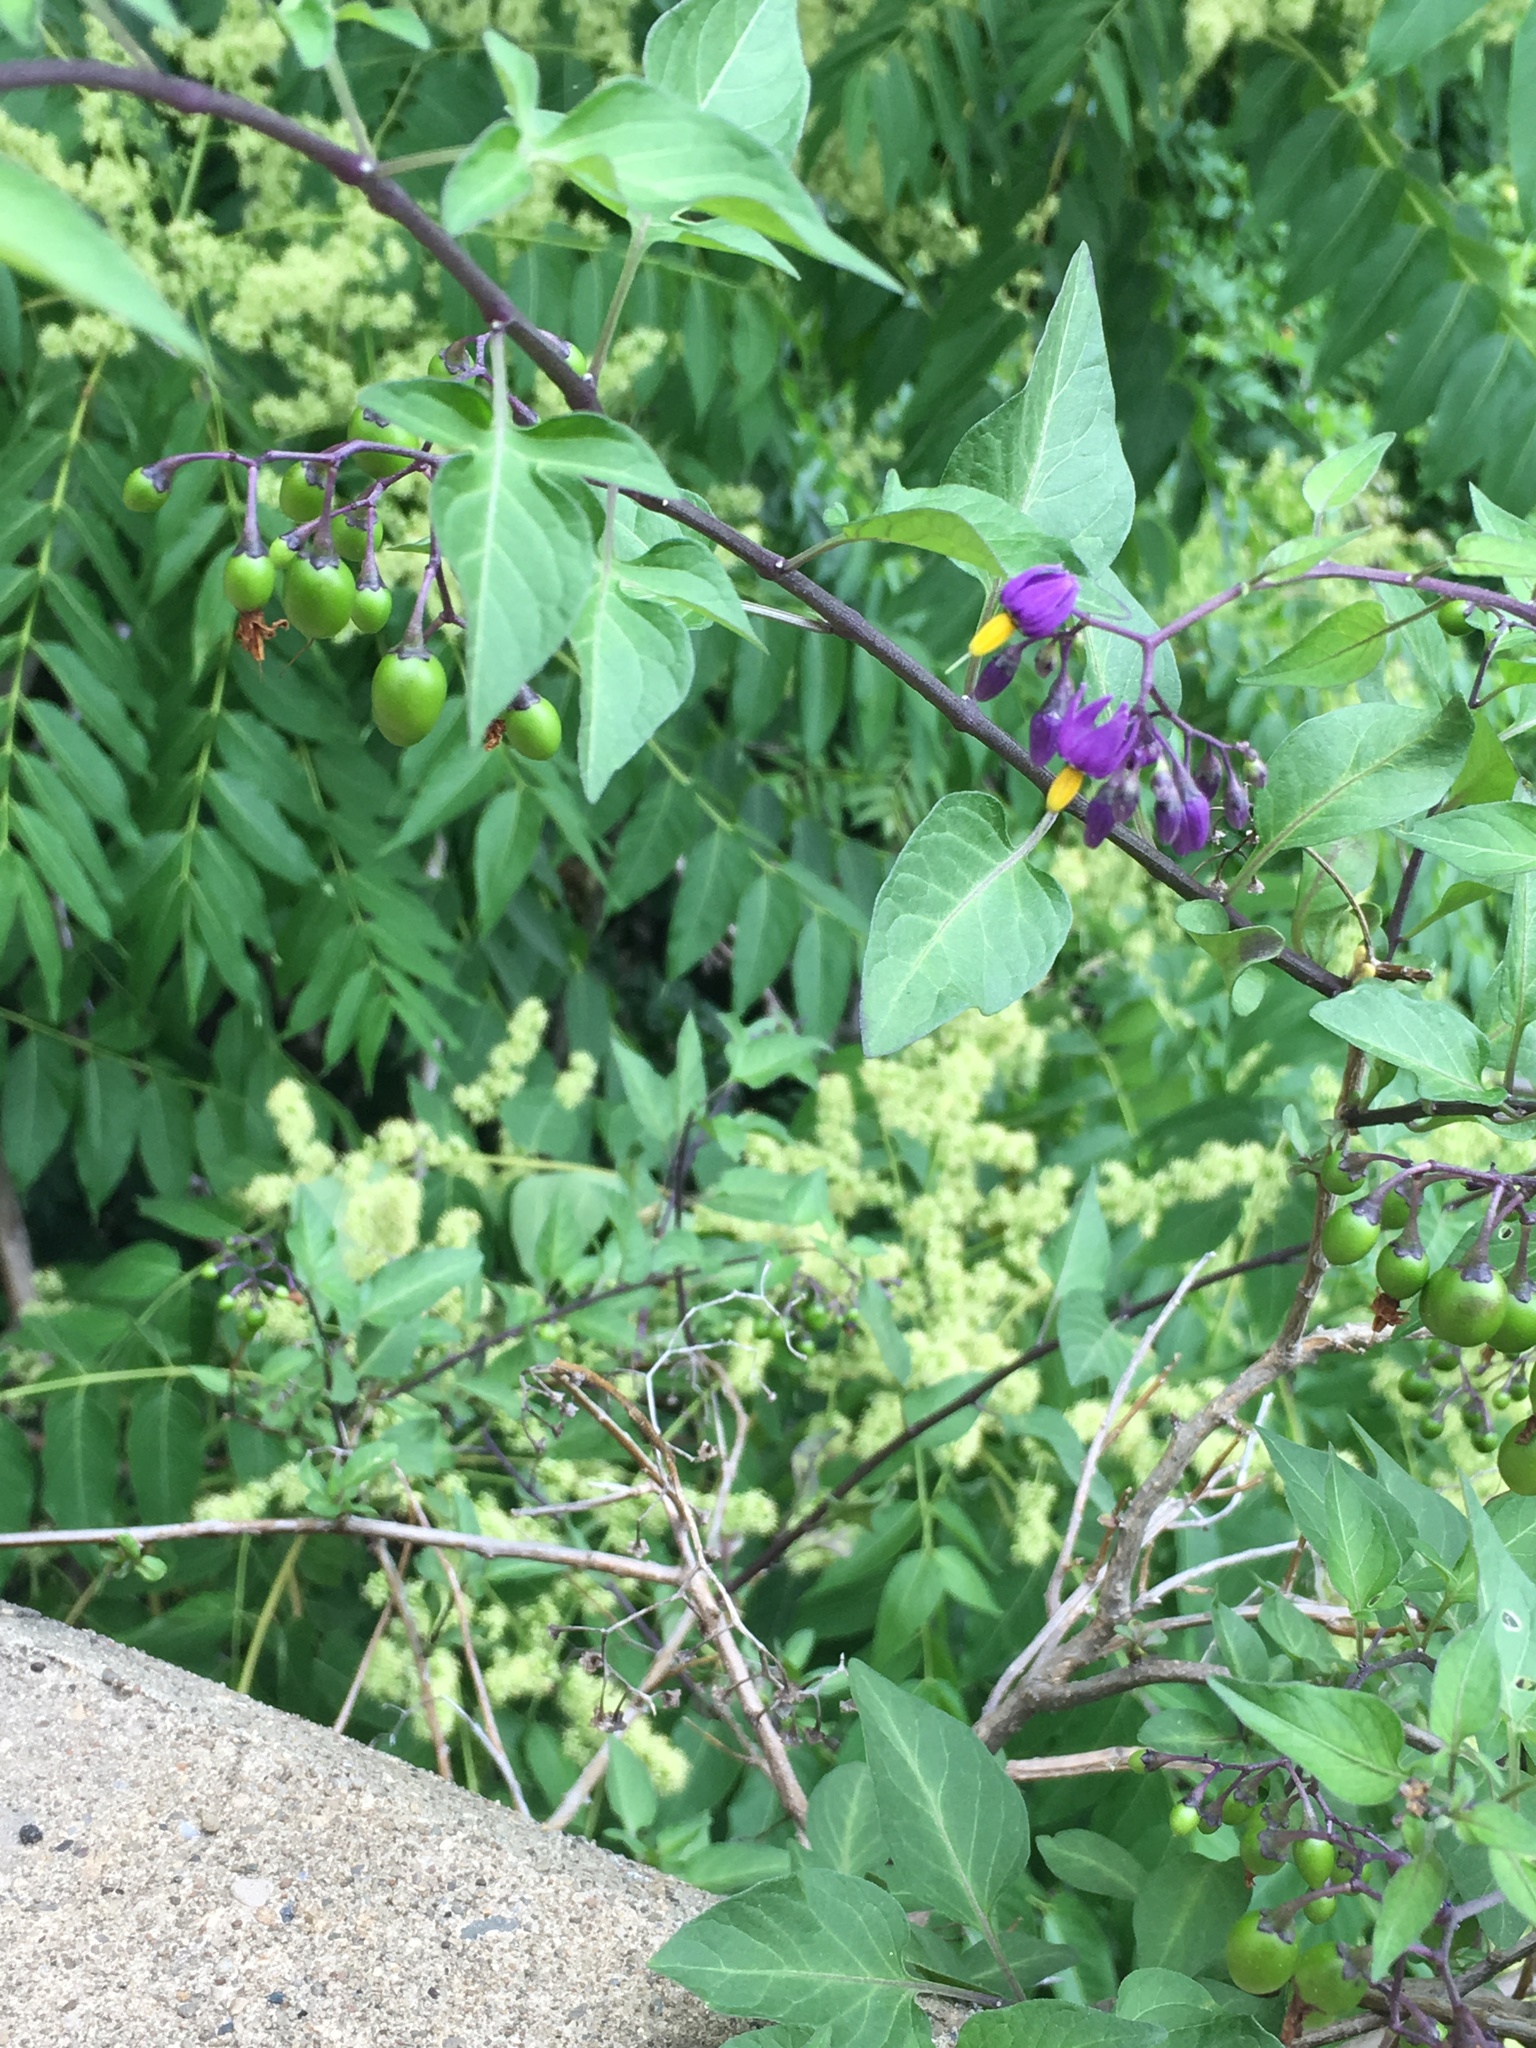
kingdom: Plantae
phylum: Tracheophyta
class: Magnoliopsida
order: Solanales
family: Solanaceae
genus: Solanum
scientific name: Solanum dulcamara
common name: Climbing nightshade
